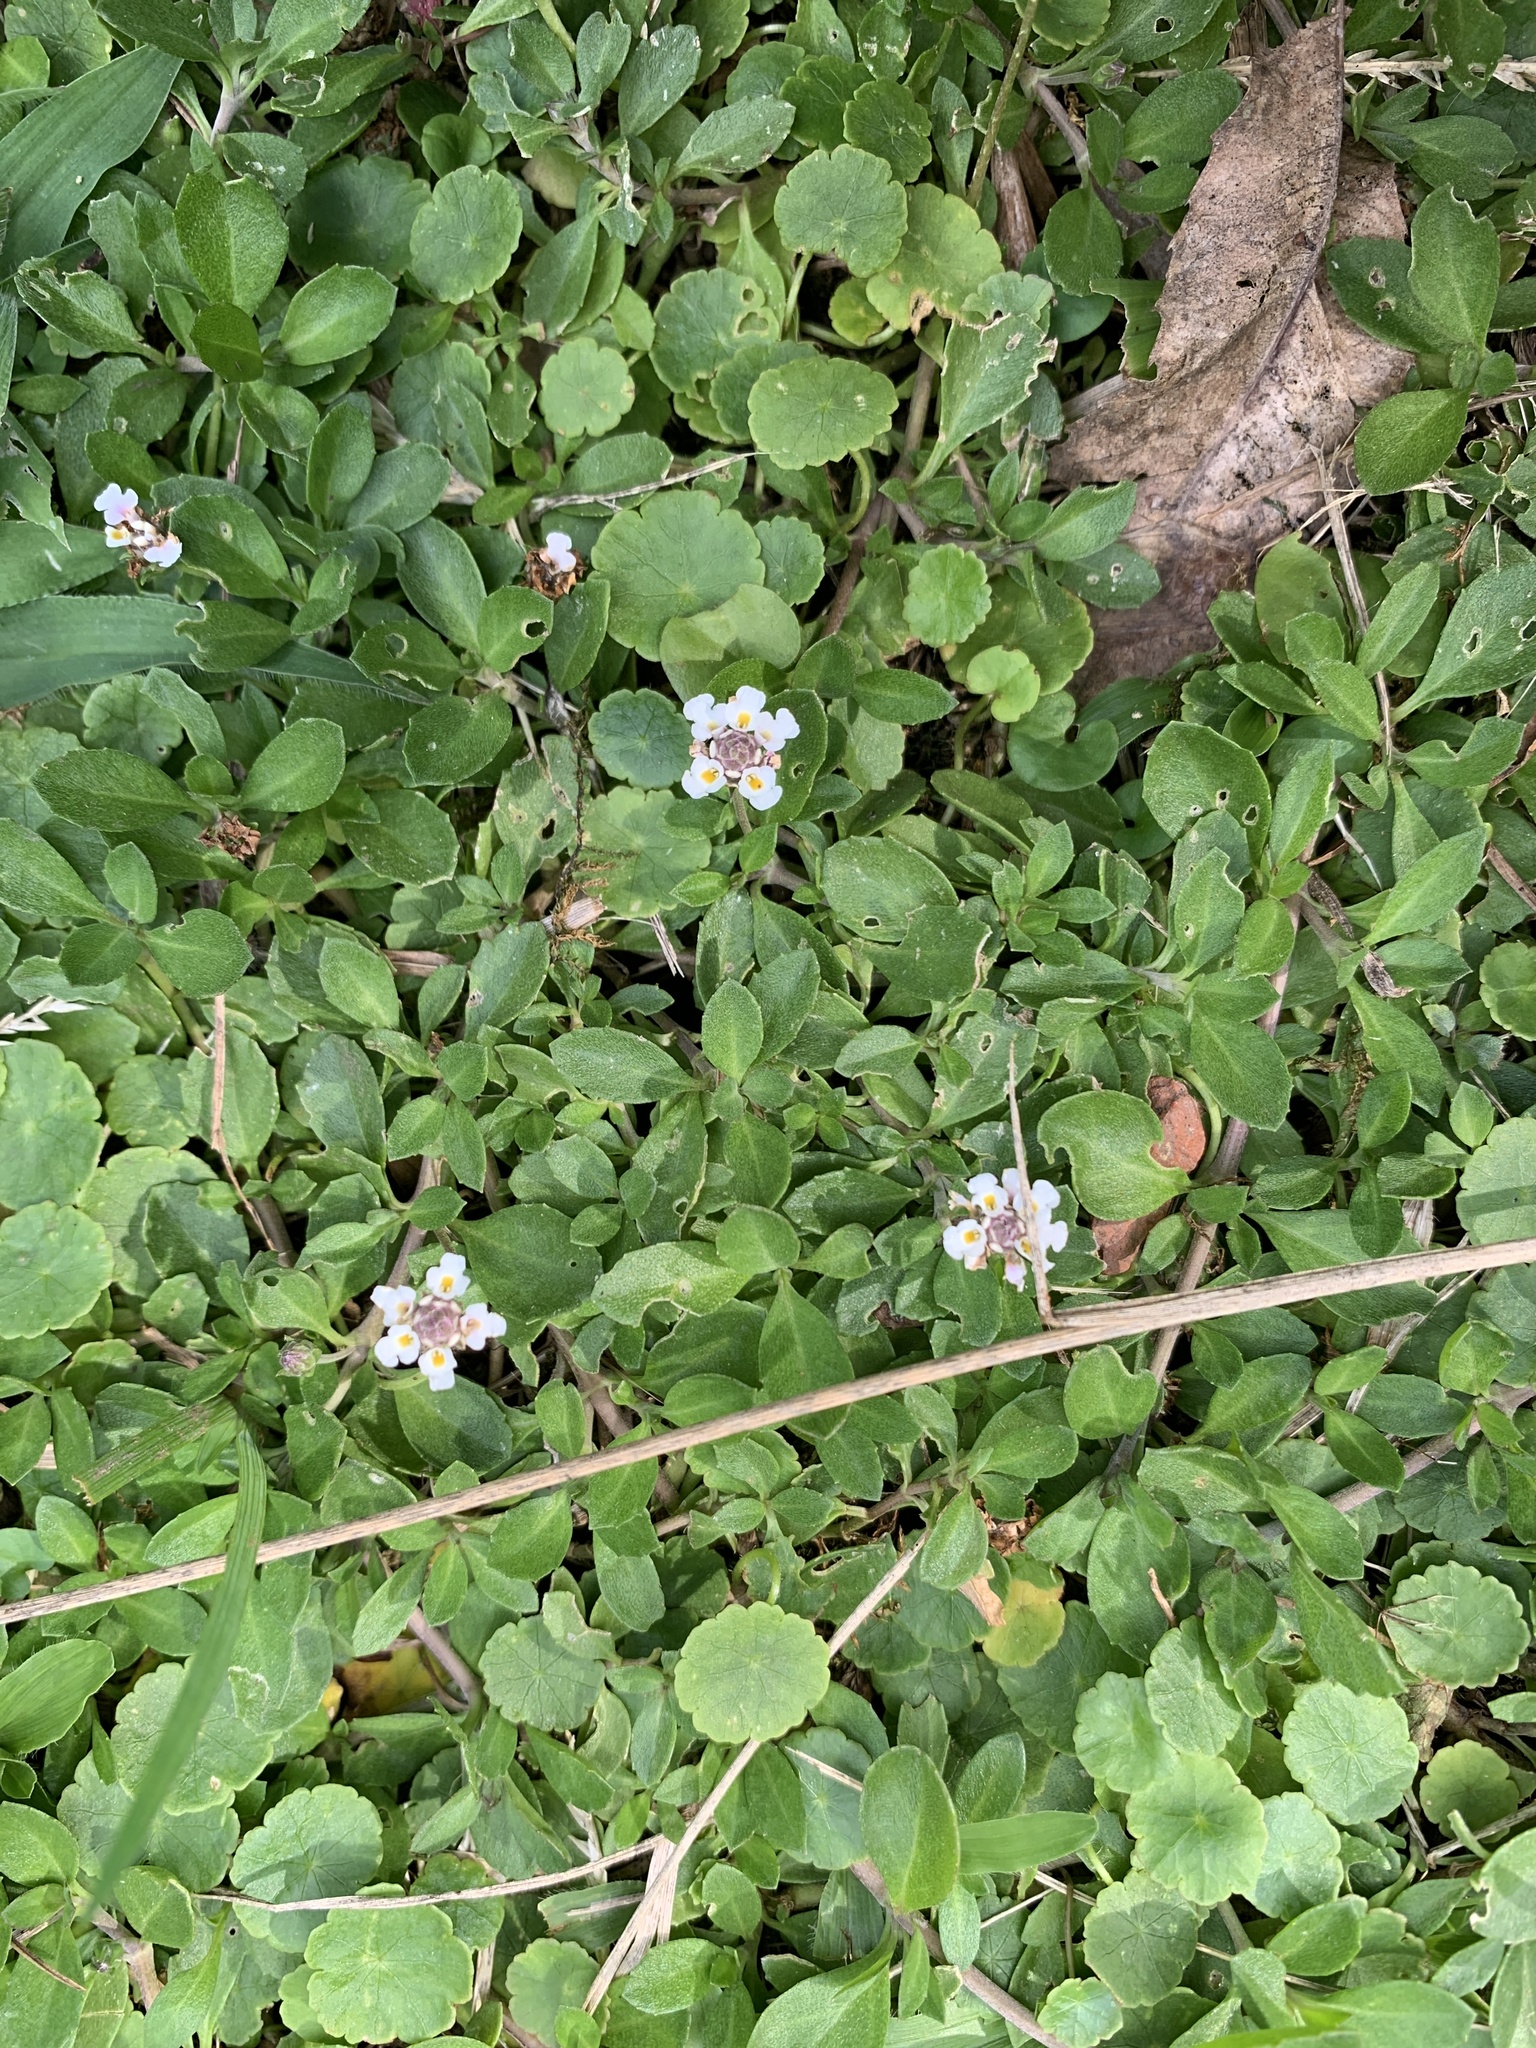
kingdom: Plantae
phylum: Tracheophyta
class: Magnoliopsida
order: Lamiales
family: Verbenaceae
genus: Phyla
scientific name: Phyla nodiflora
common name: Frogfruit
